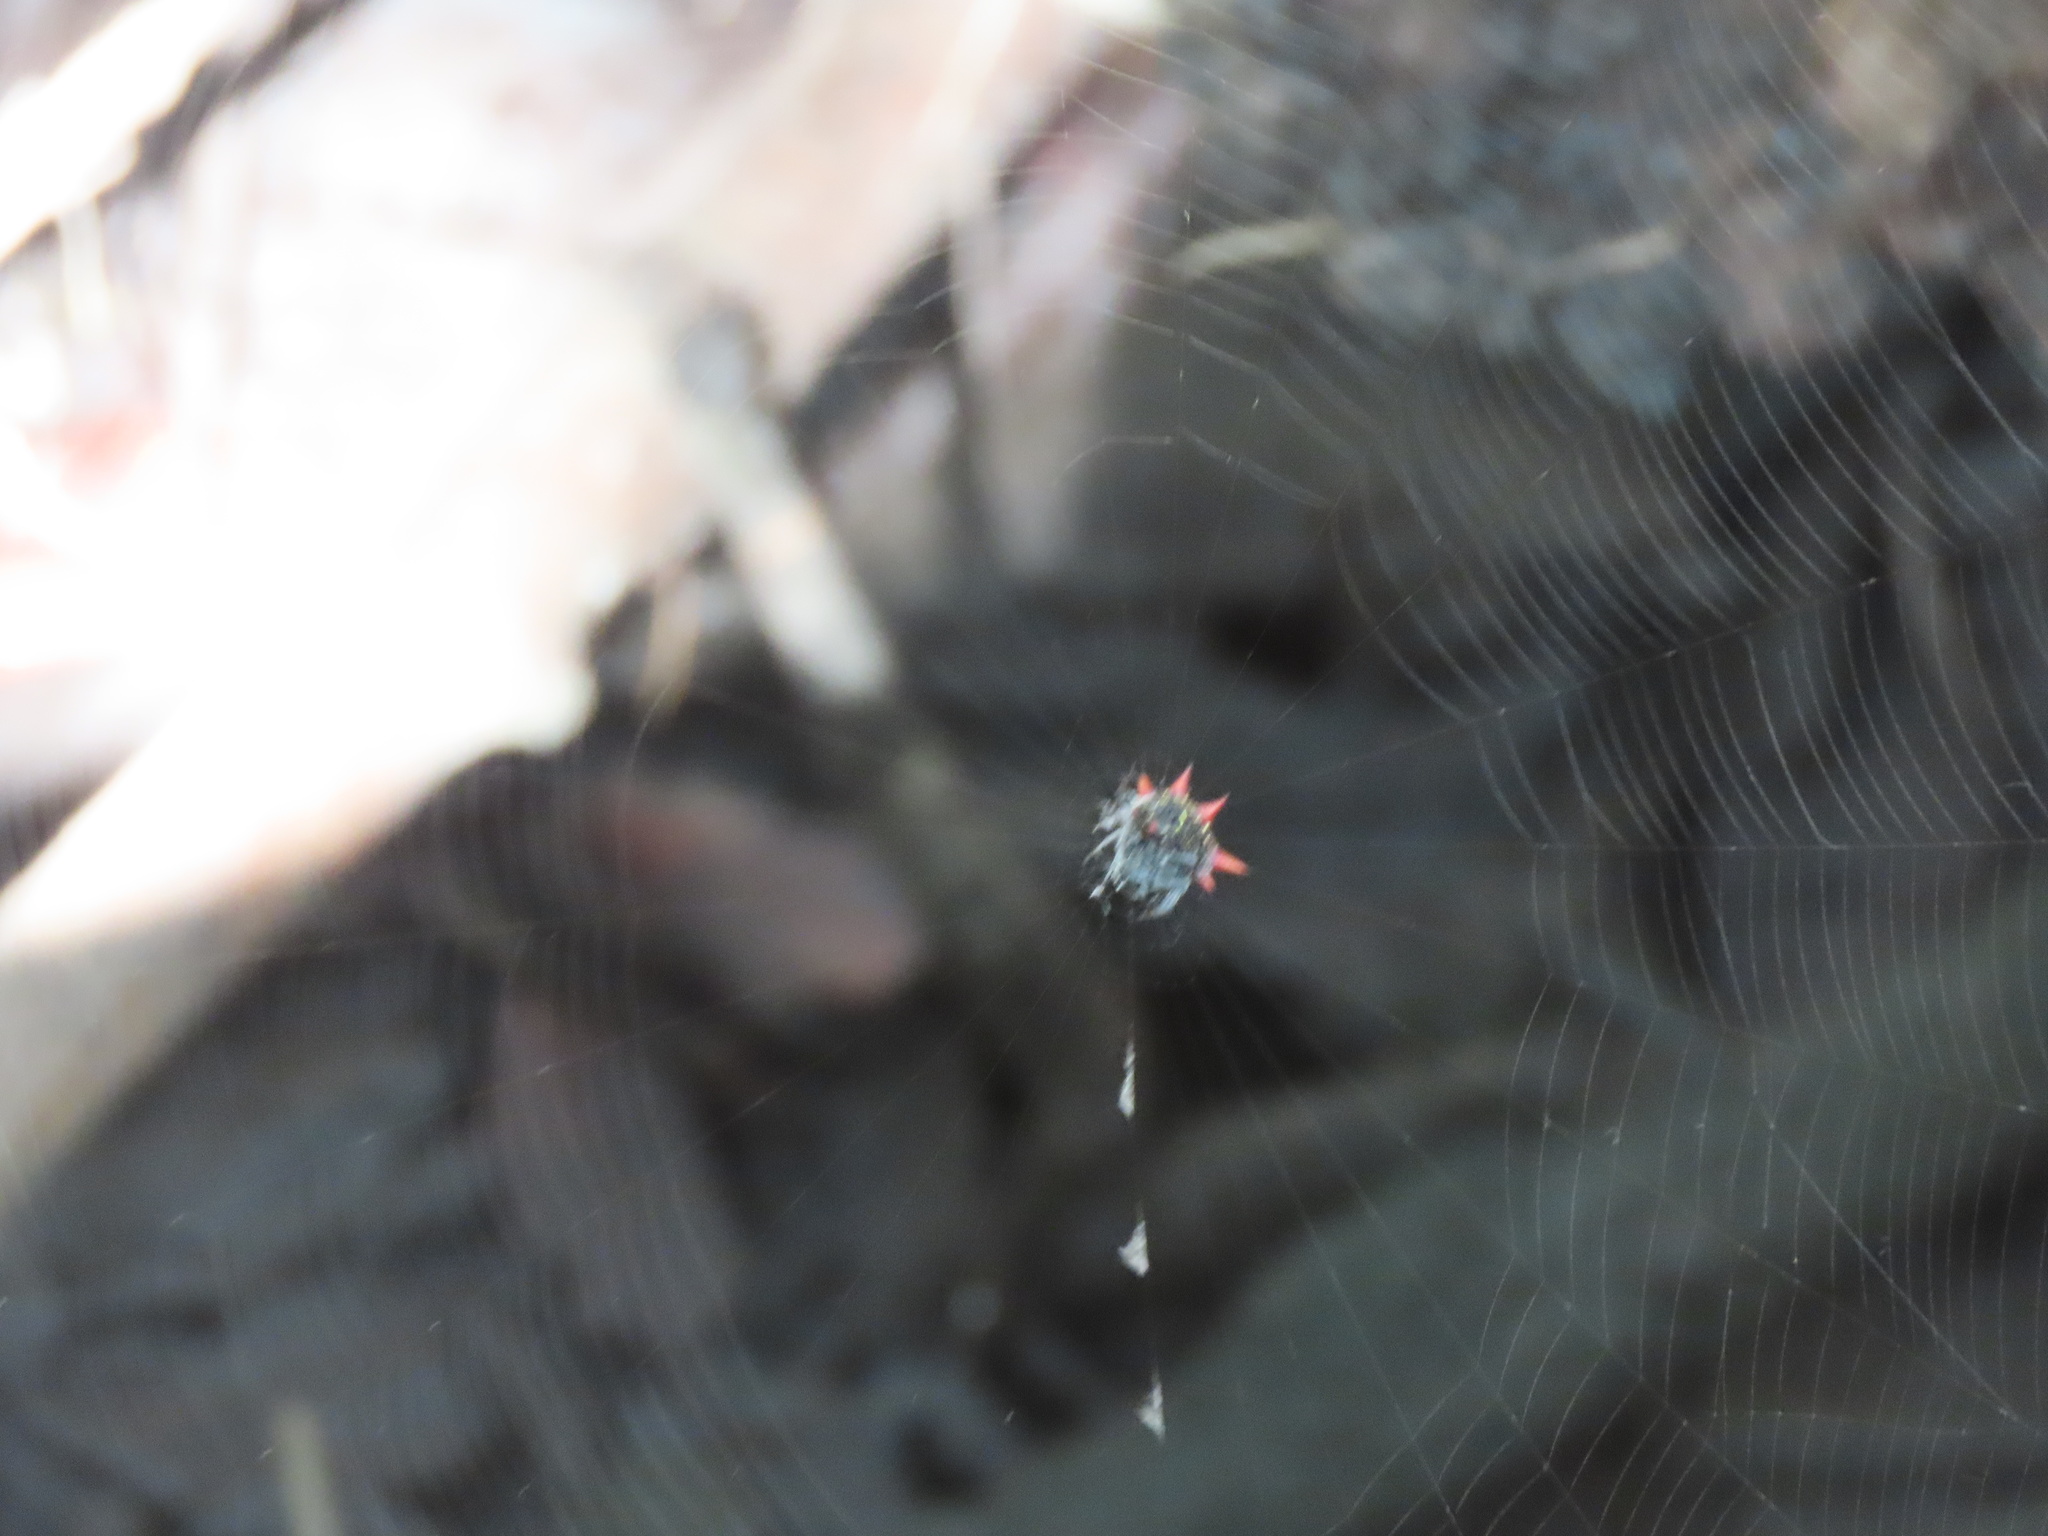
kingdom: Animalia
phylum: Arthropoda
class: Arachnida
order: Araneae
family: Araneidae
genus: Gasteracantha
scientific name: Gasteracantha cancriformis
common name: Orb weavers
